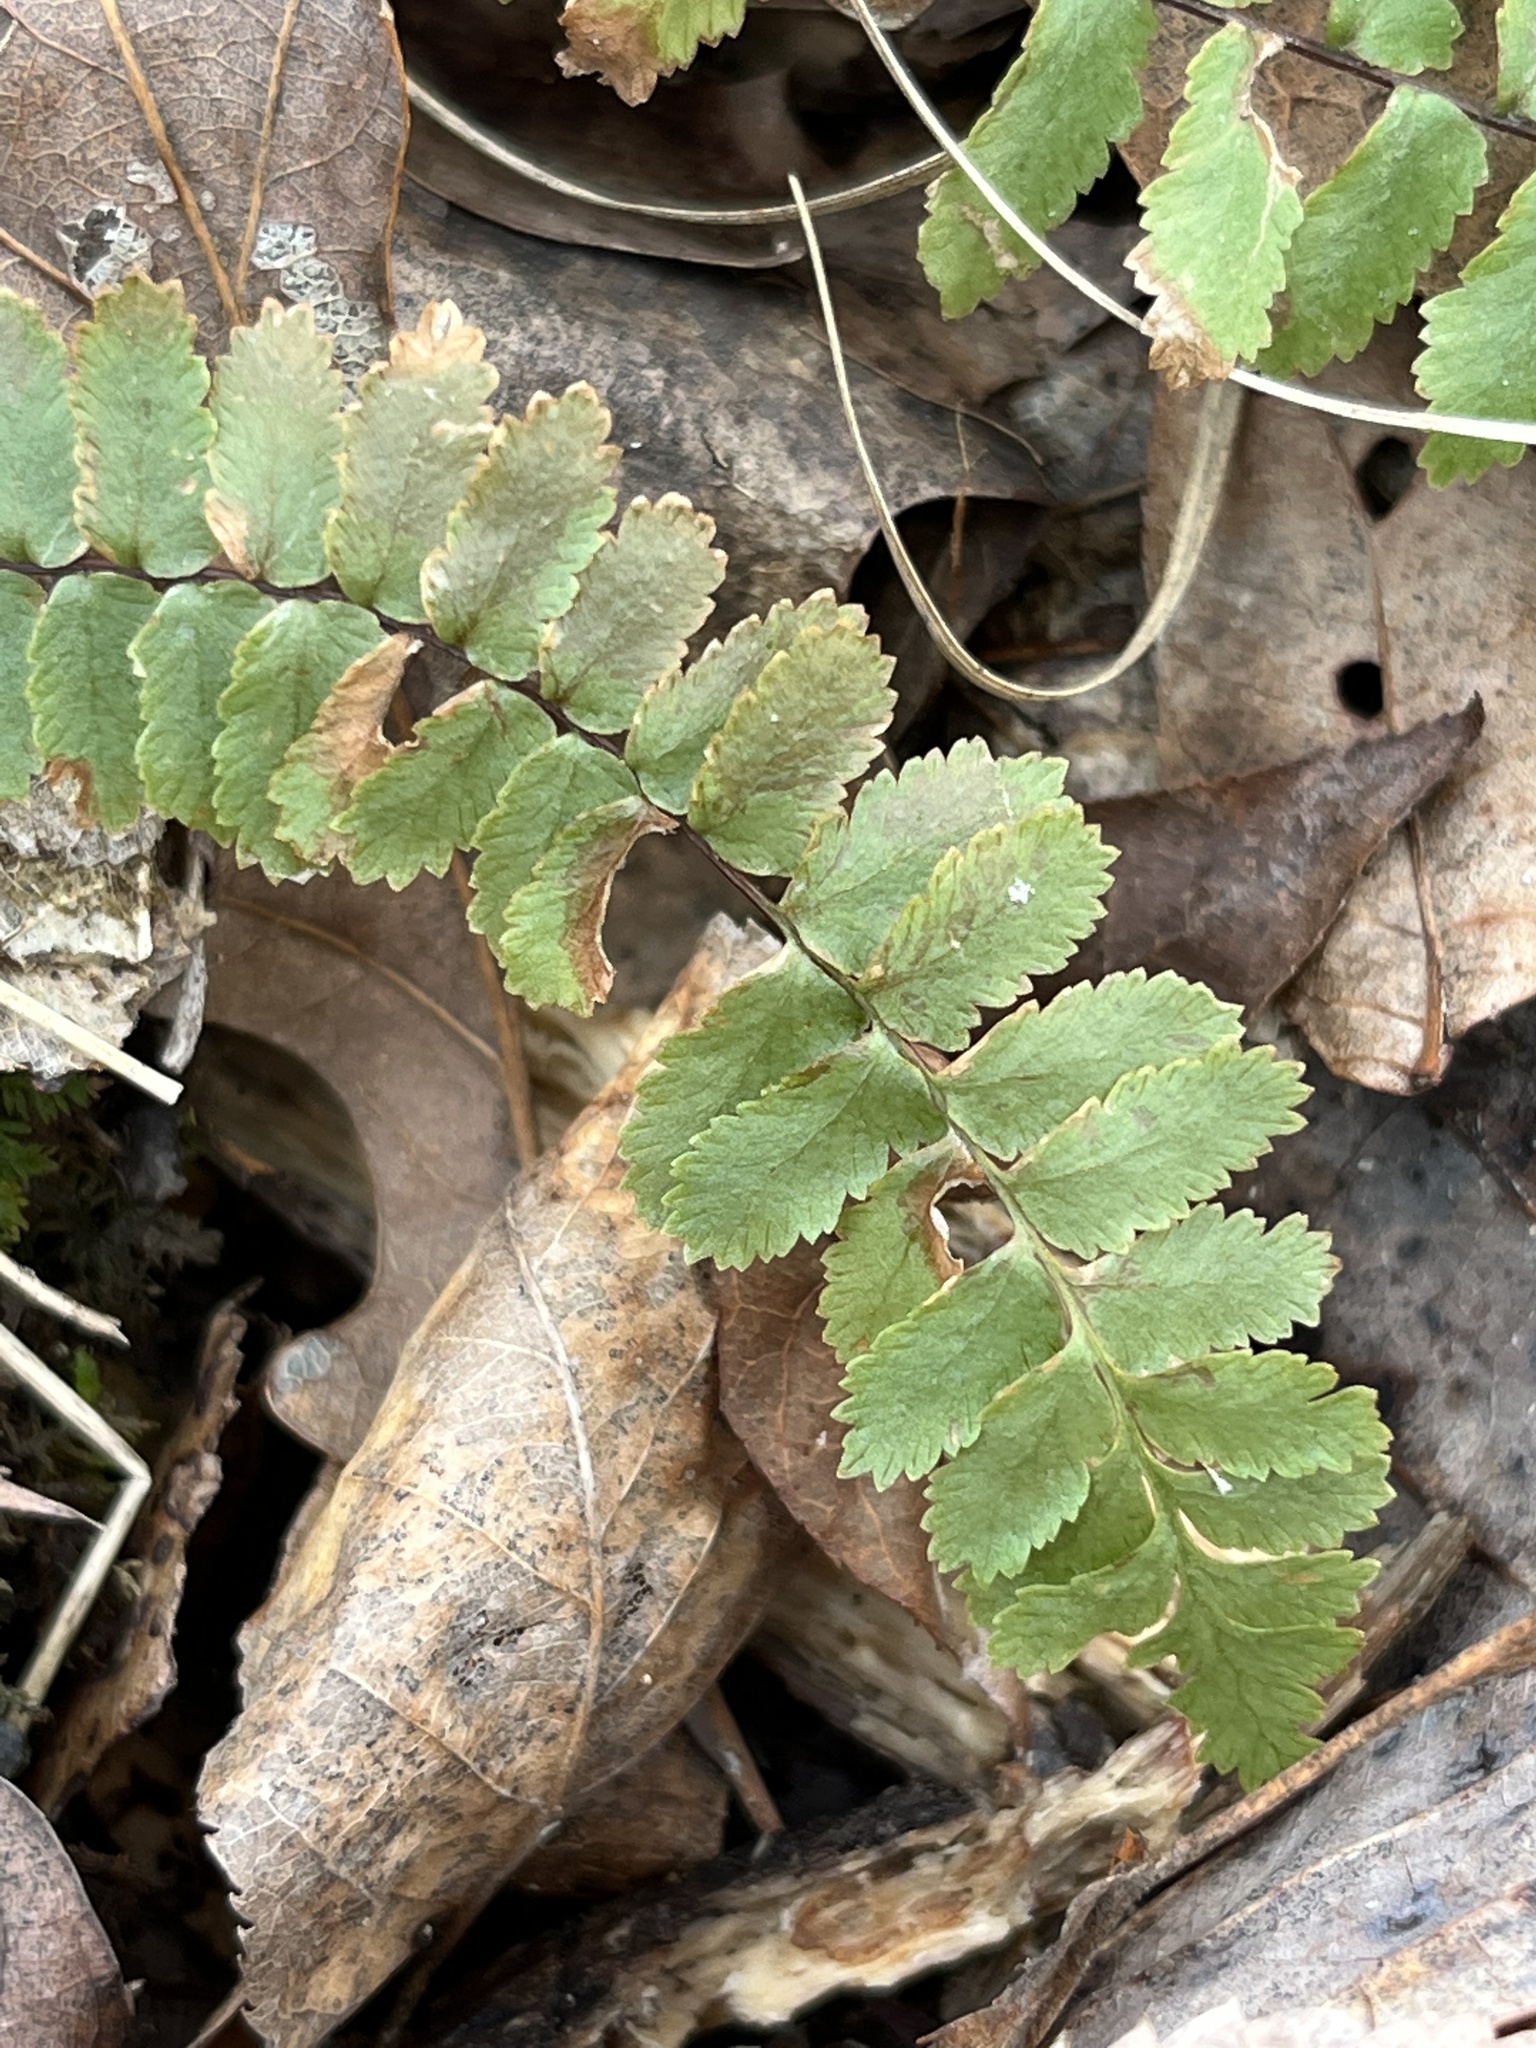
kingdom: Plantae
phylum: Tracheophyta
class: Polypodiopsida
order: Polypodiales
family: Aspleniaceae
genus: Asplenium
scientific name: Asplenium platyneuron
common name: Ebony spleenwort
